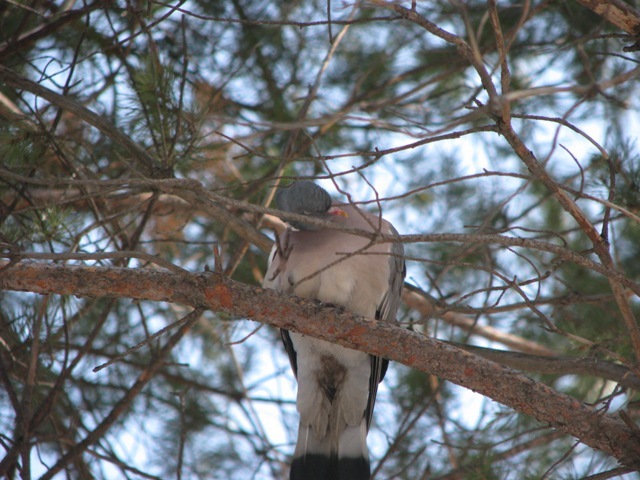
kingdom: Animalia
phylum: Chordata
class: Aves
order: Columbiformes
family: Columbidae
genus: Columba
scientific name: Columba palumbus
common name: Common wood pigeon
